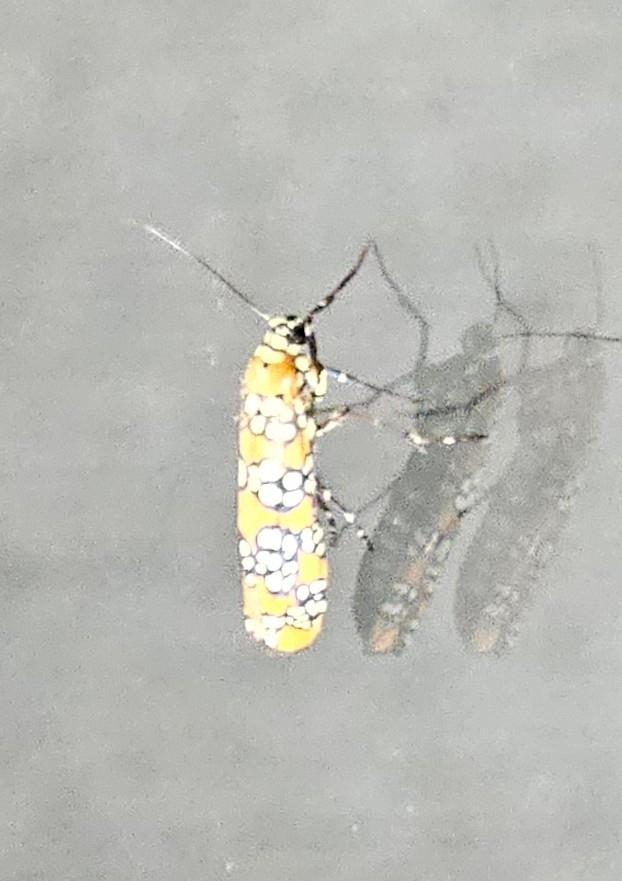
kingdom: Animalia
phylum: Arthropoda
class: Insecta
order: Lepidoptera
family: Attevidae
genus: Atteva
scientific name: Atteva punctella
